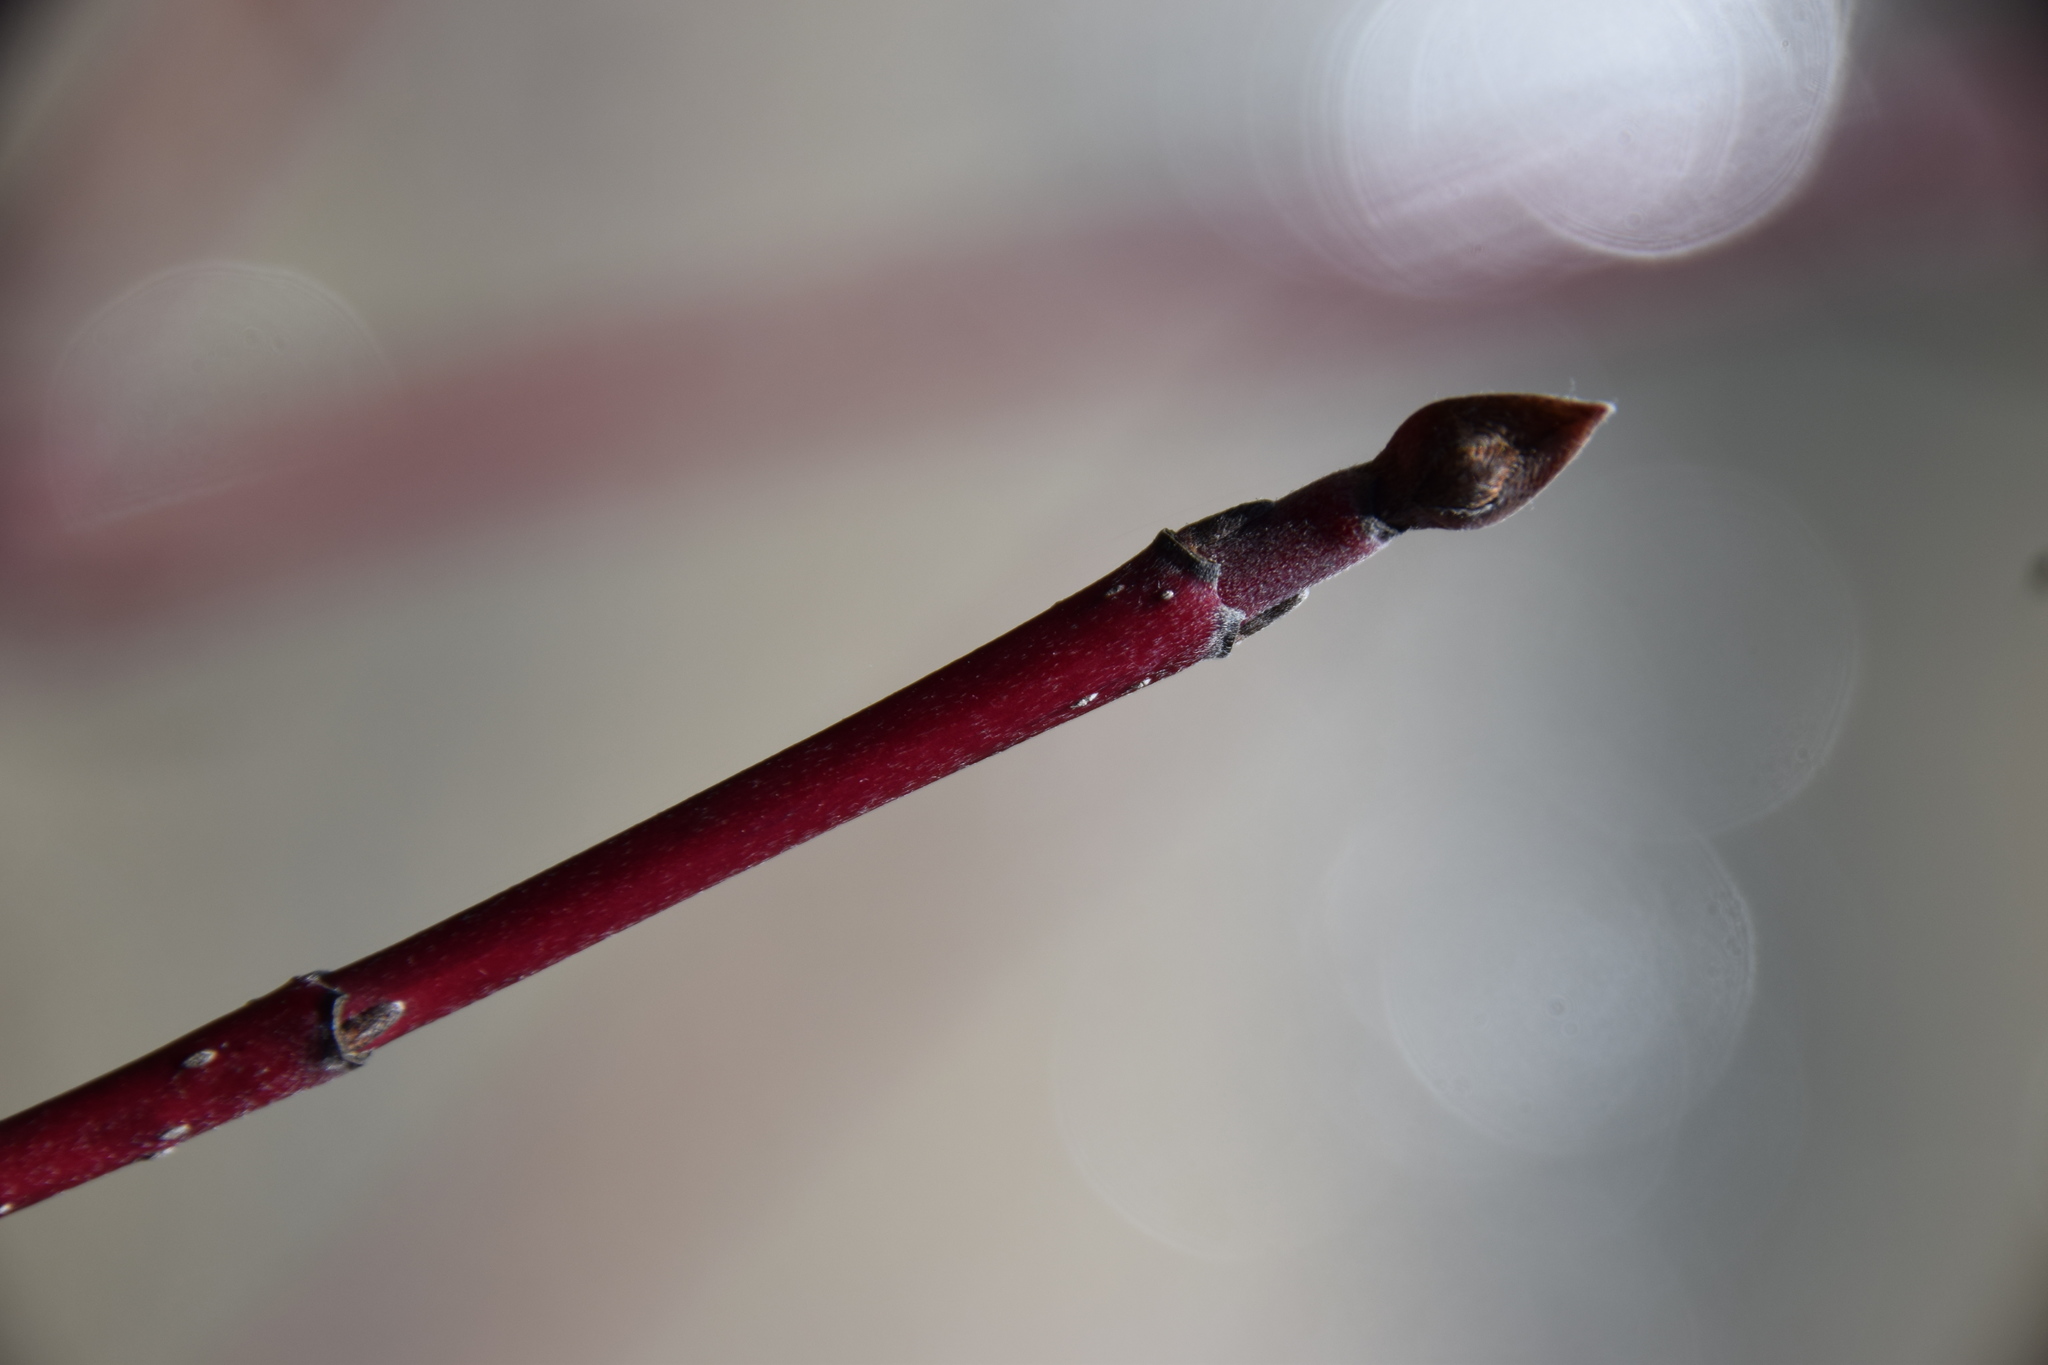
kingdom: Plantae
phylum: Tracheophyta
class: Magnoliopsida
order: Cornales
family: Cornaceae
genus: Cornus
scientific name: Cornus sericea
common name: Red-osier dogwood
